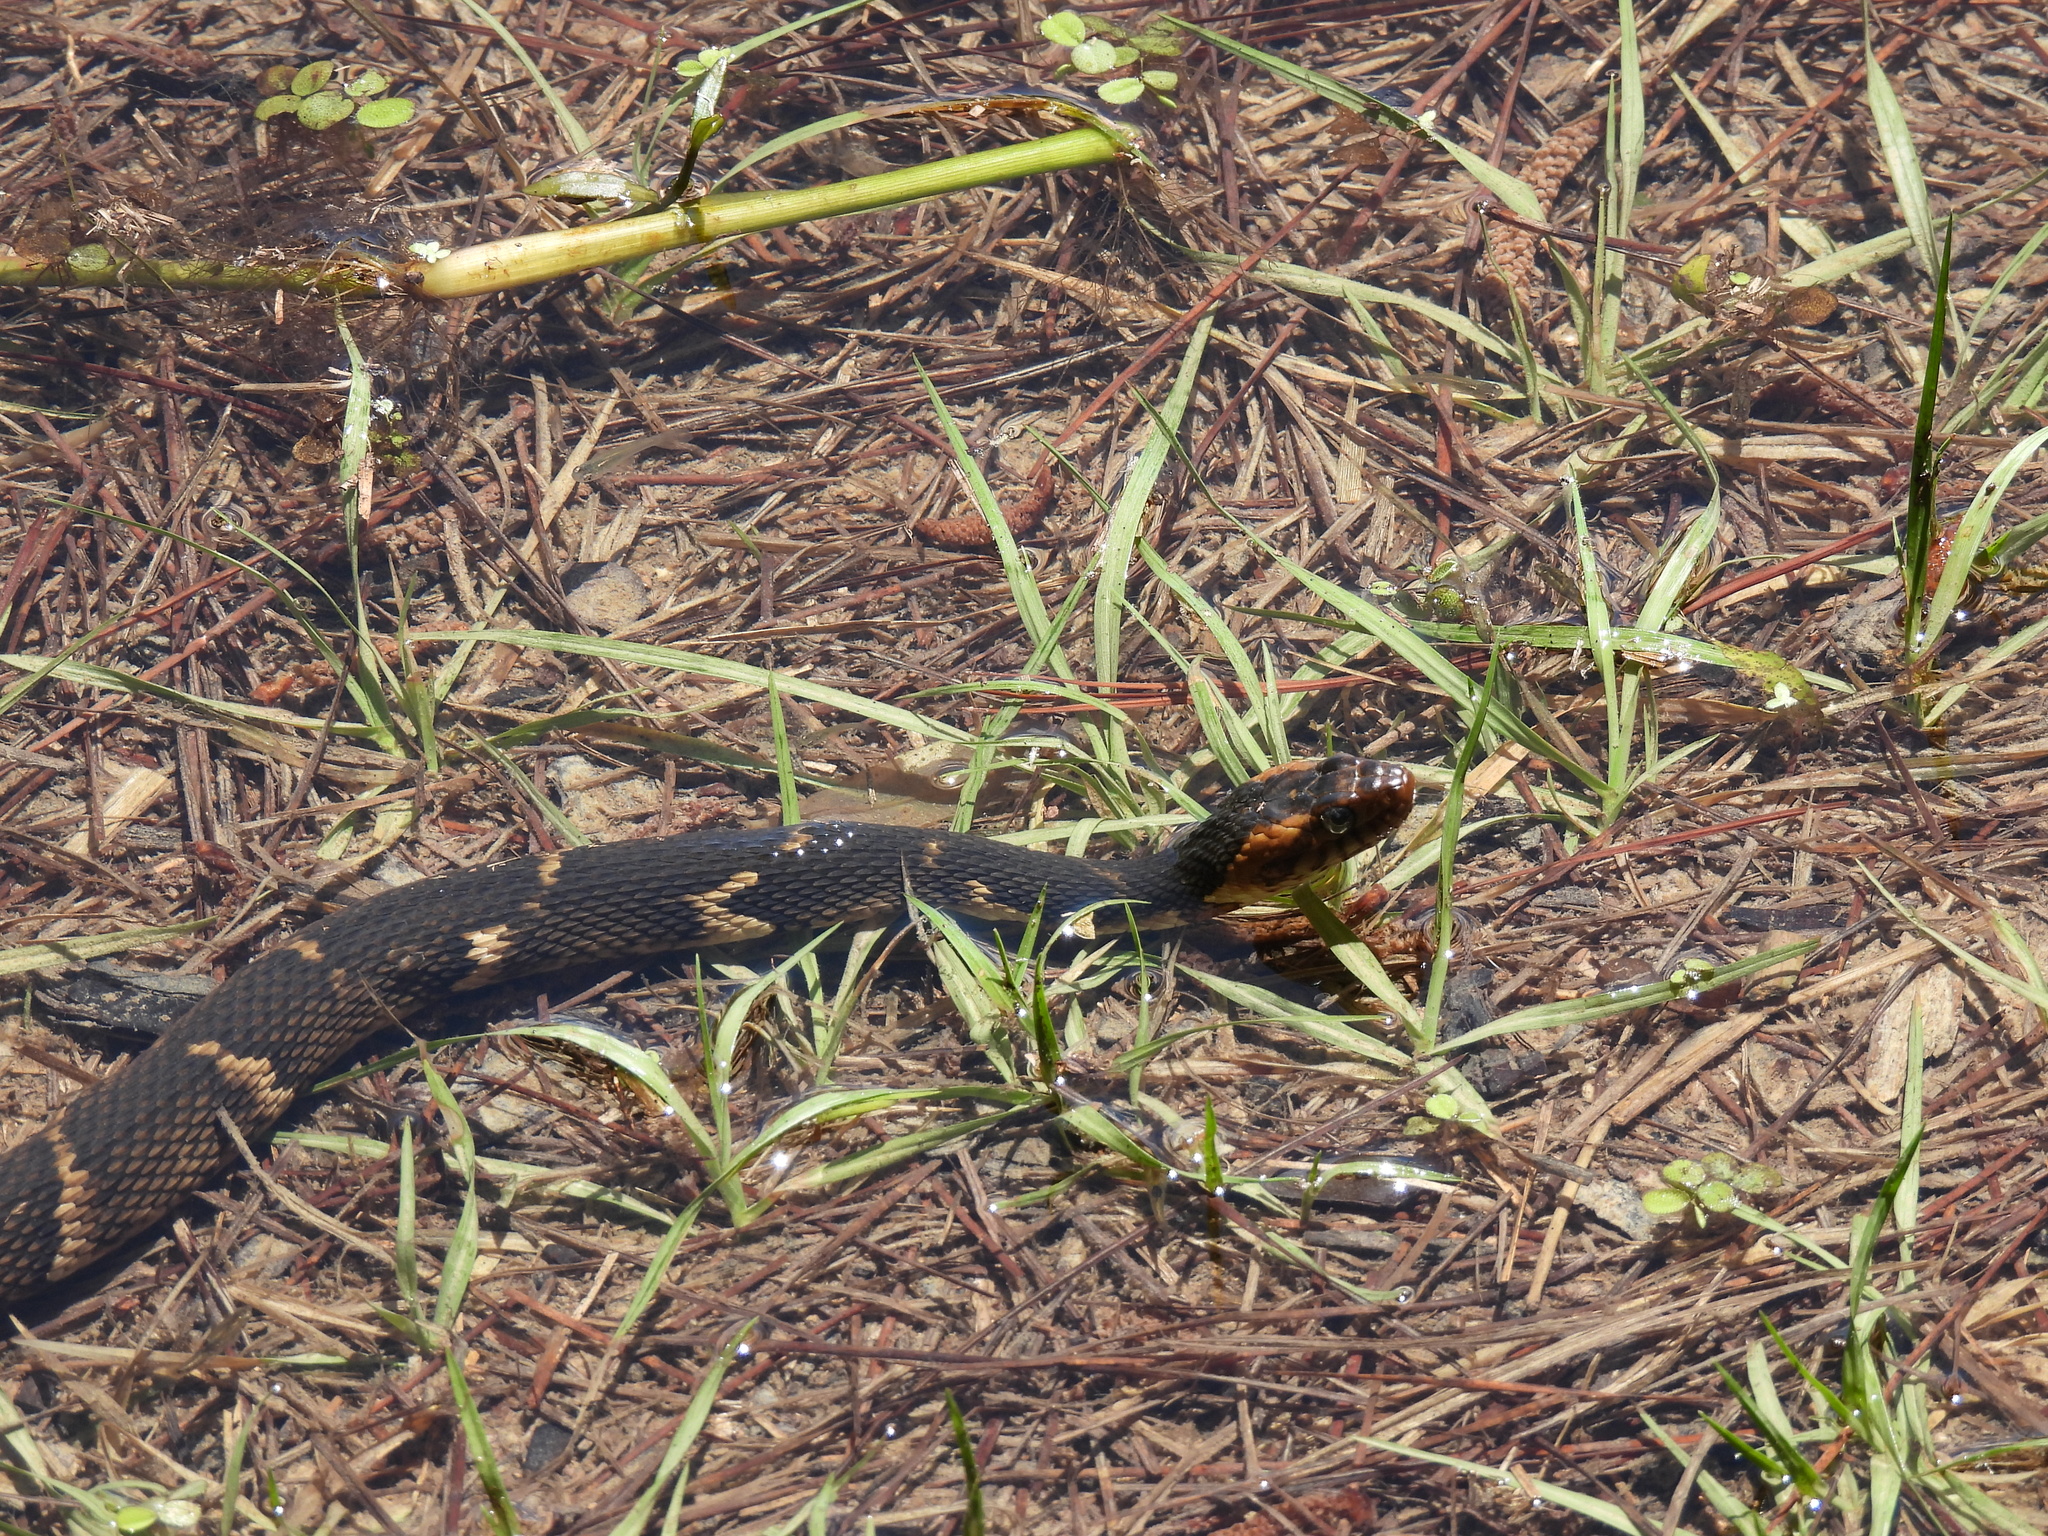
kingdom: Animalia
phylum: Chordata
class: Squamata
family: Colubridae
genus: Nerodia
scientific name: Nerodia fasciata
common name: Southern water snake
